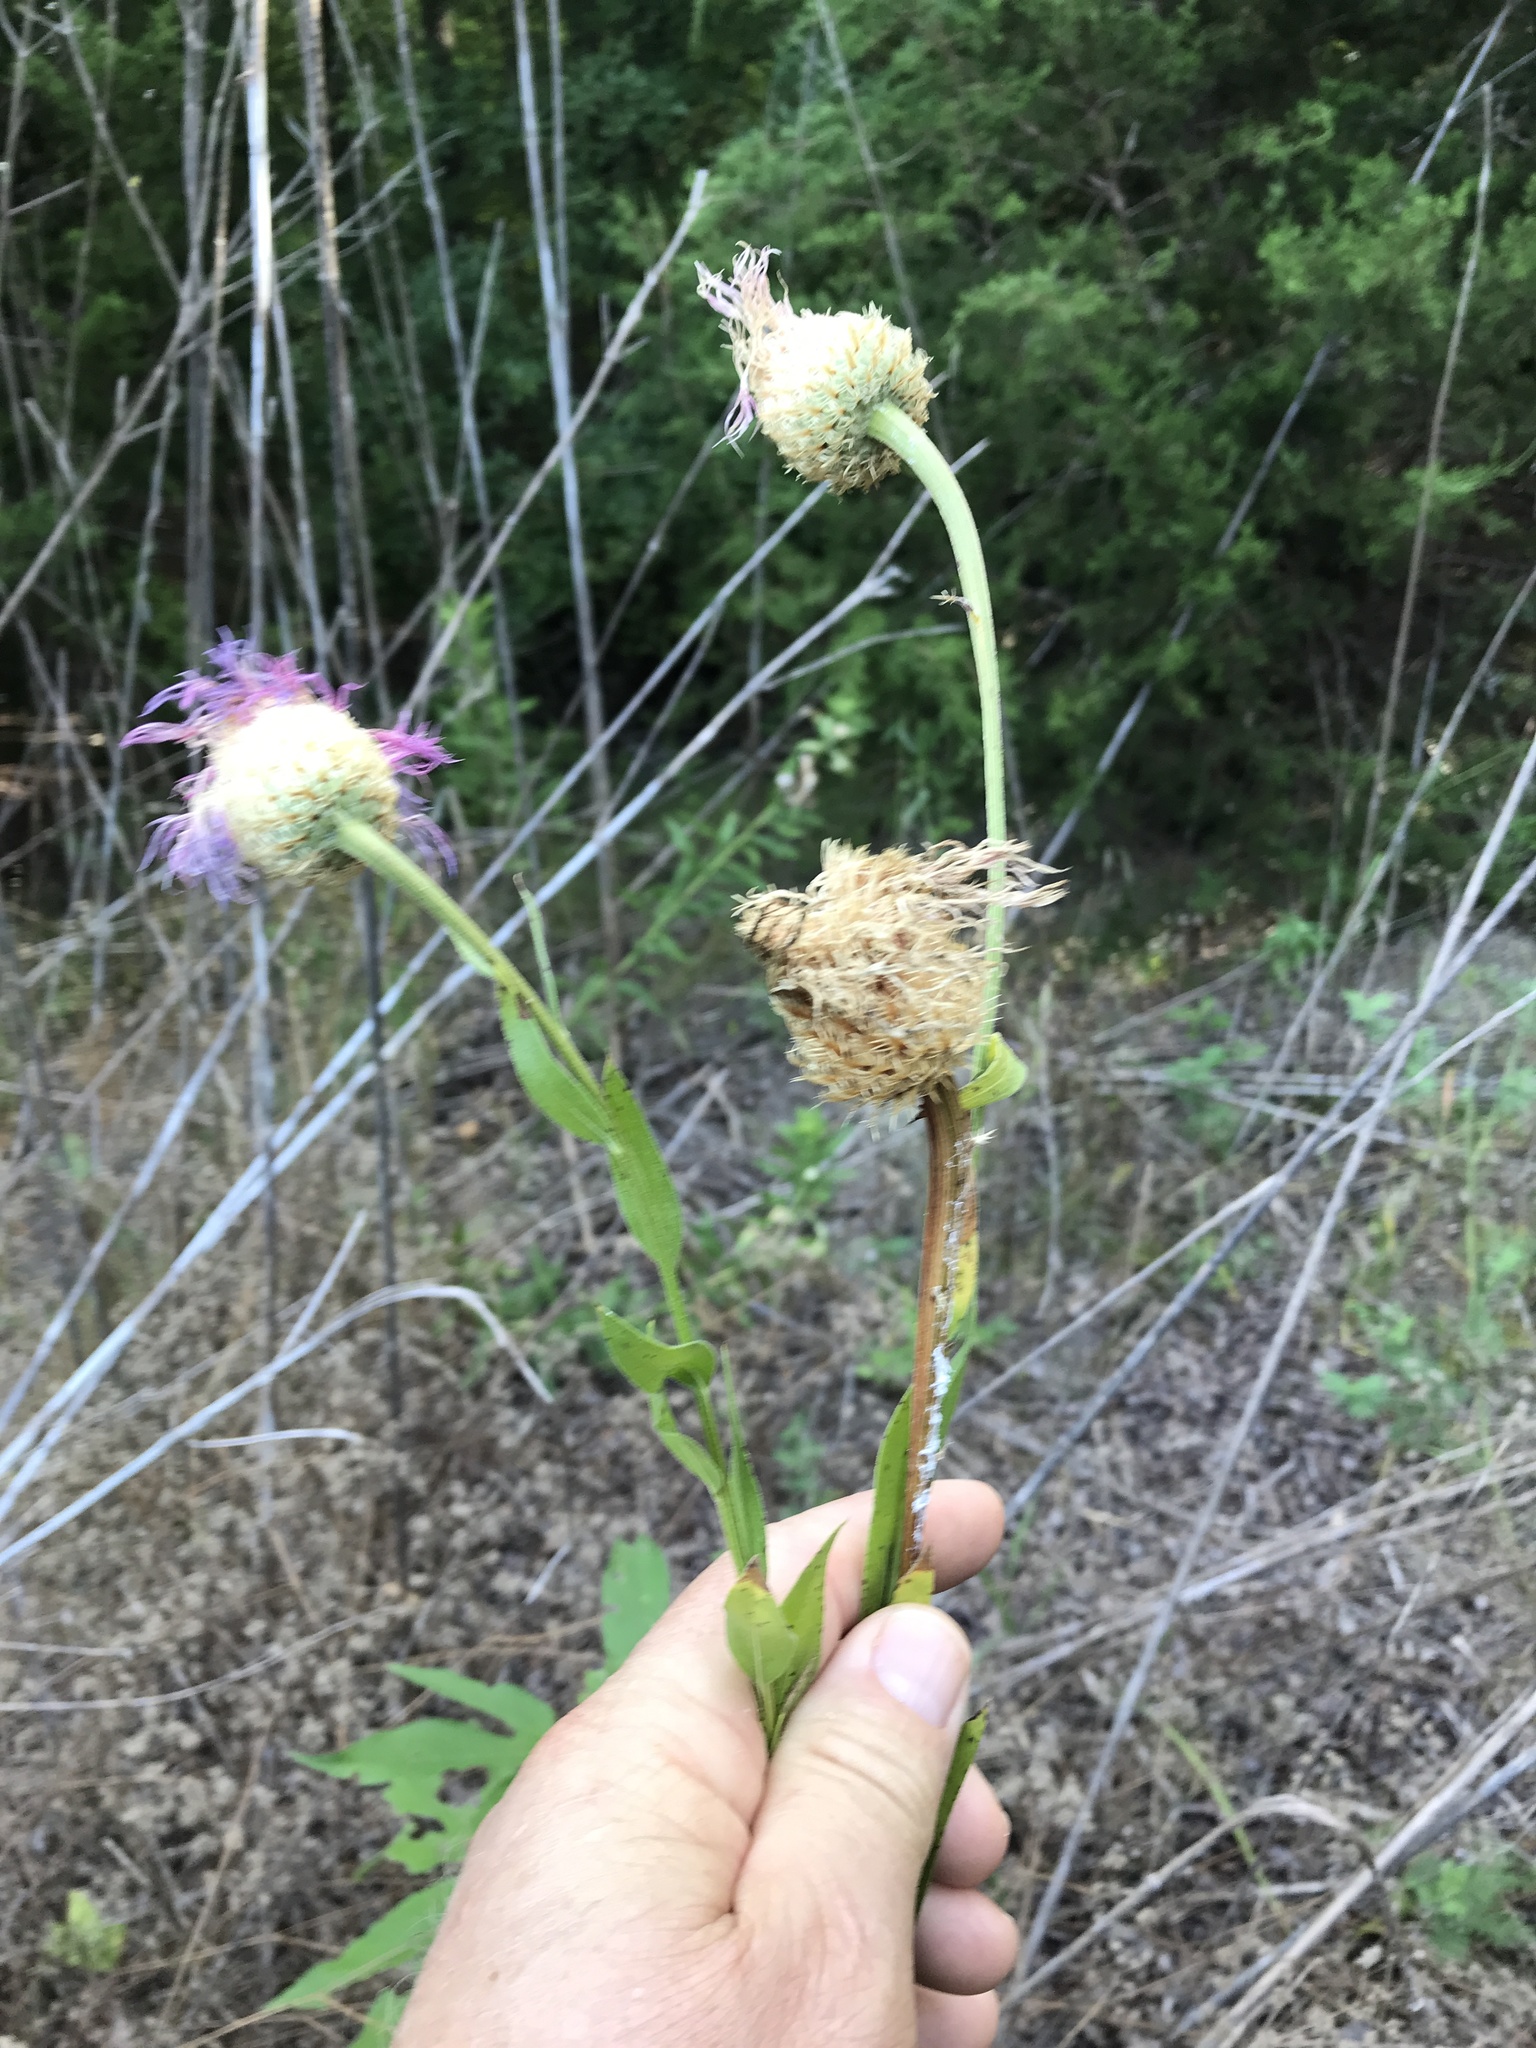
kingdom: Plantae
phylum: Tracheophyta
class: Magnoliopsida
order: Asterales
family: Asteraceae
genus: Plectocephalus
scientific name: Plectocephalus americanus
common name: American basket-flower
